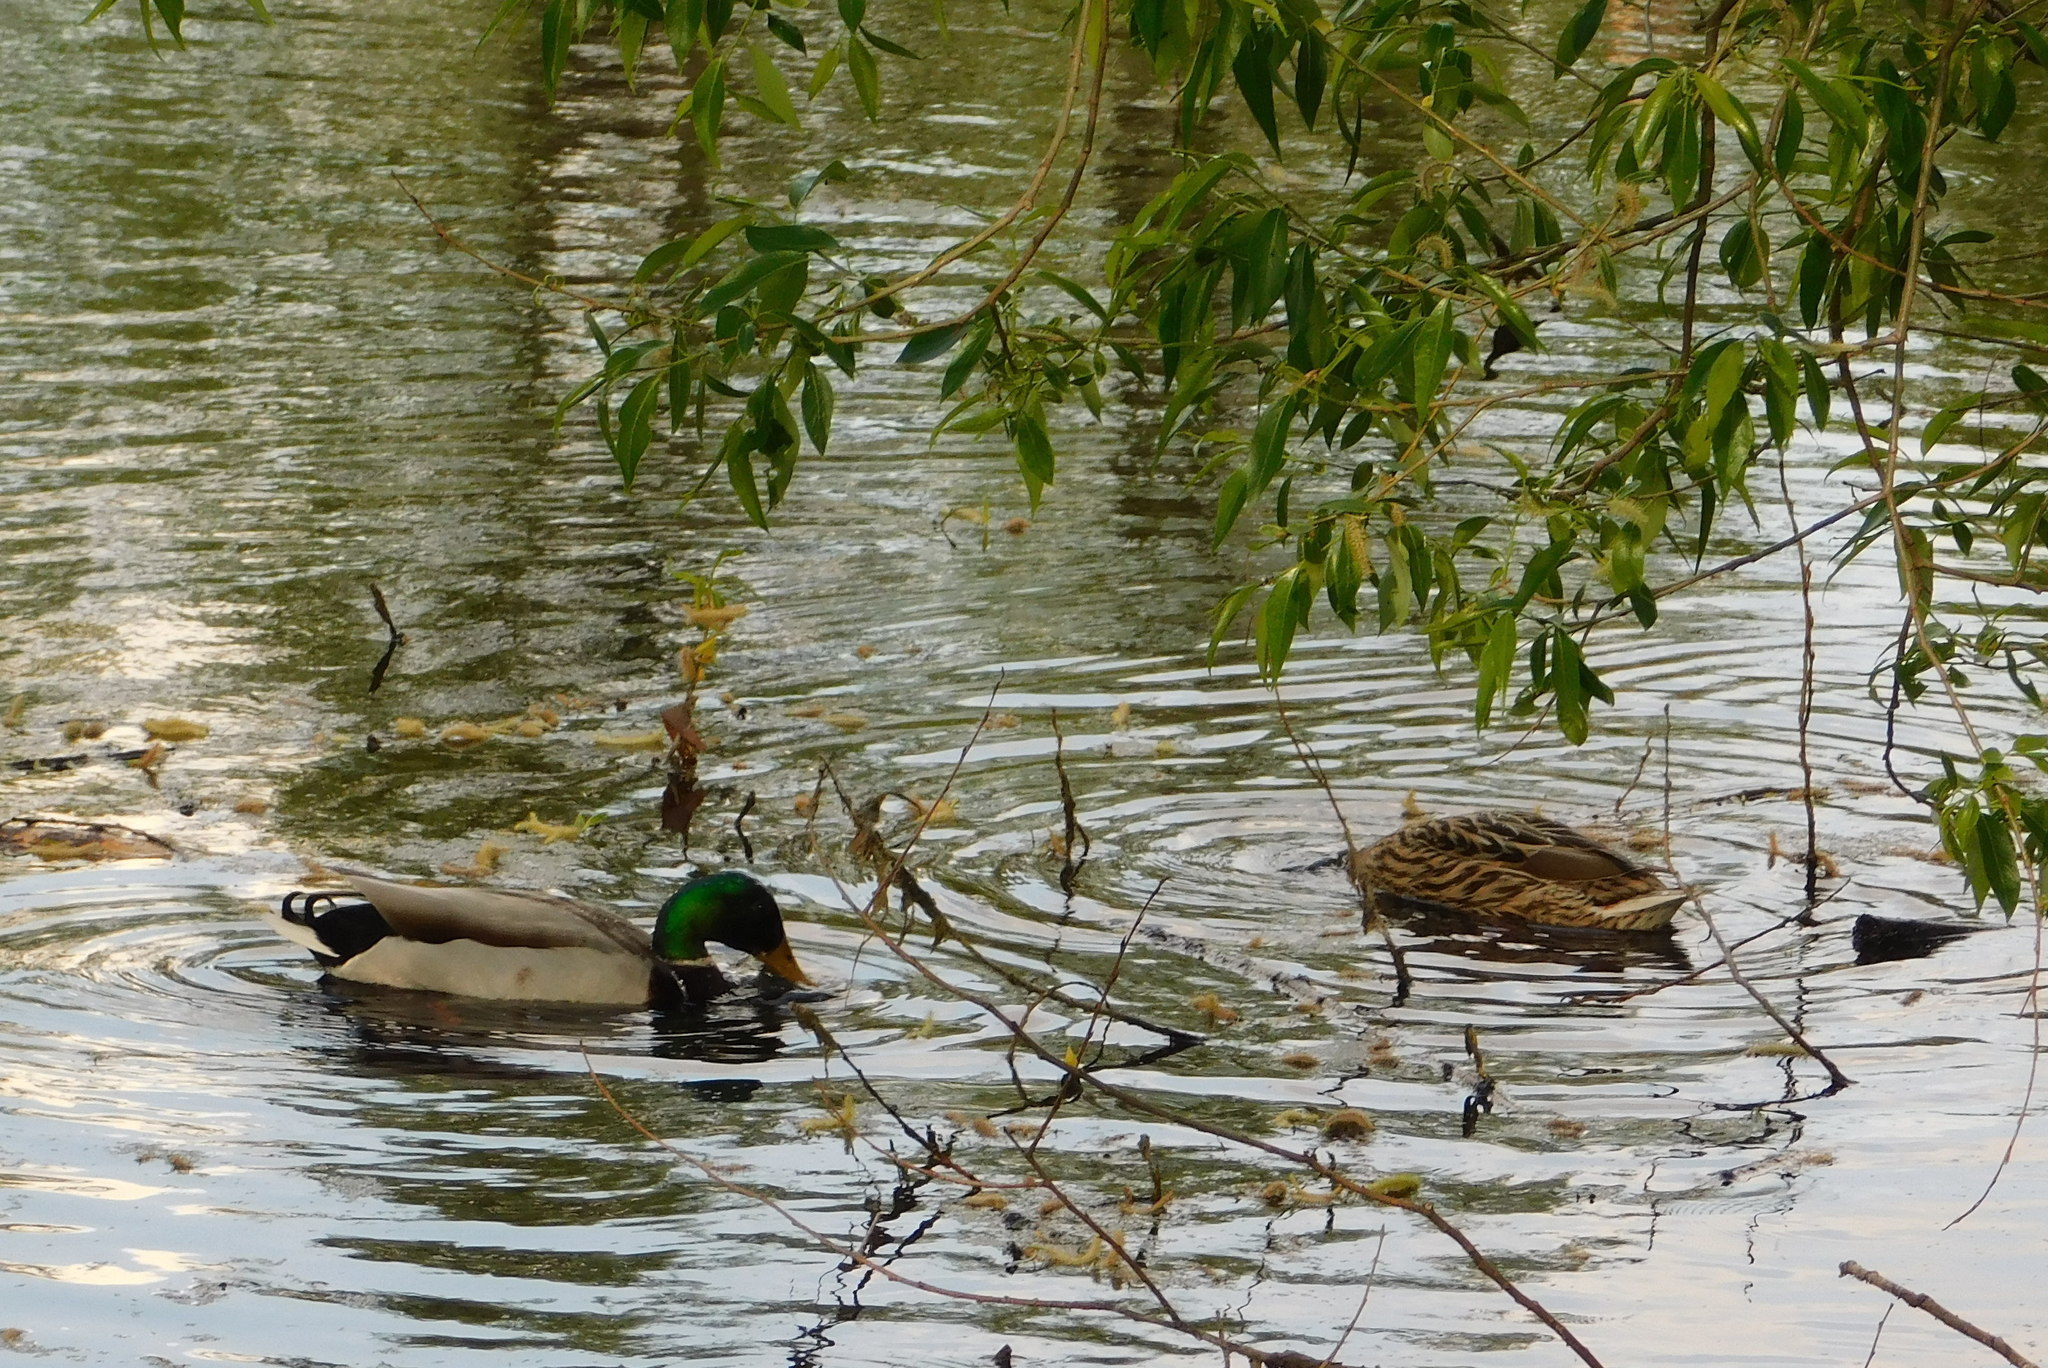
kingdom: Animalia
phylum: Chordata
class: Aves
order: Anseriformes
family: Anatidae
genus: Anas
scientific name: Anas platyrhynchos
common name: Mallard
